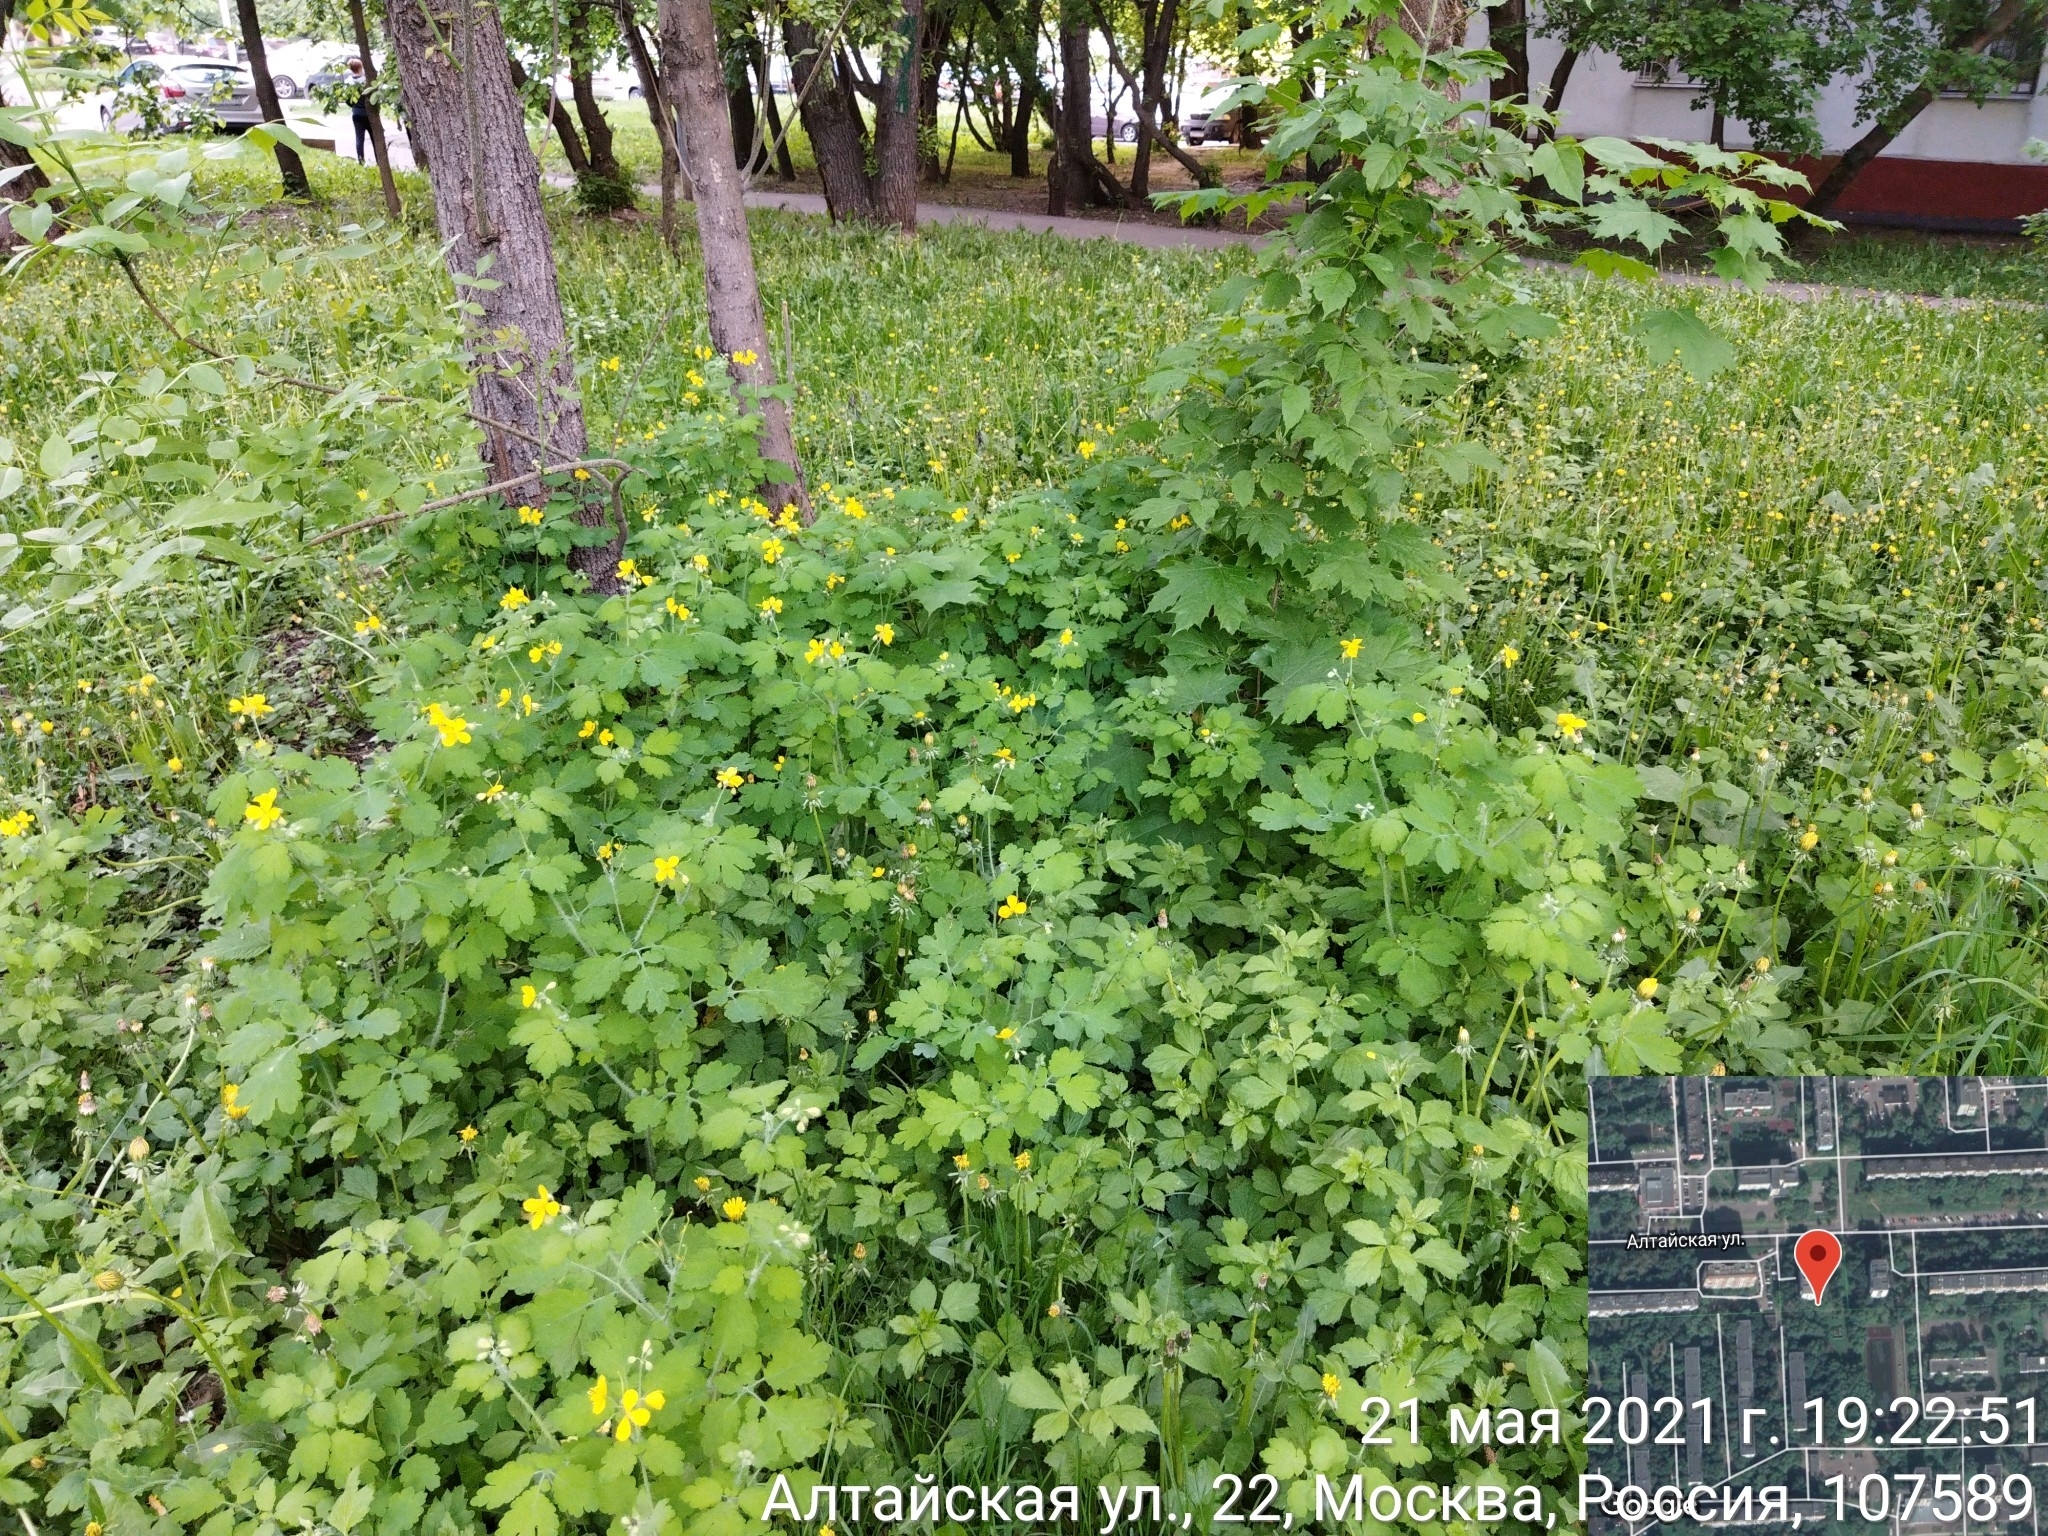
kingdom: Plantae
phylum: Tracheophyta
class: Magnoliopsida
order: Ranunculales
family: Papaveraceae
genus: Chelidonium
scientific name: Chelidonium majus
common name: Greater celandine
